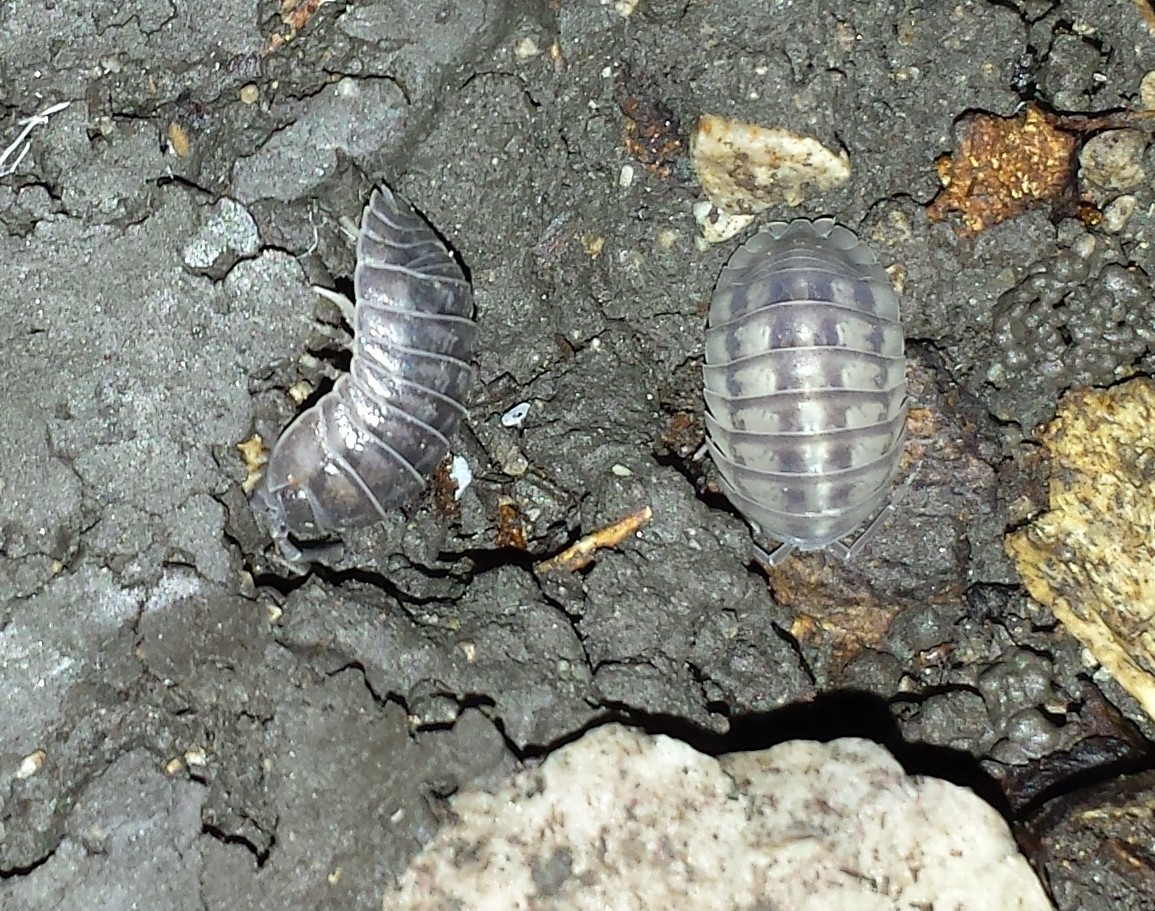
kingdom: Animalia
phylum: Arthropoda
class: Malacostraca
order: Isopoda
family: Armadillidiidae
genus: Armadillidium
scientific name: Armadillidium nasatum
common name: Isopod
